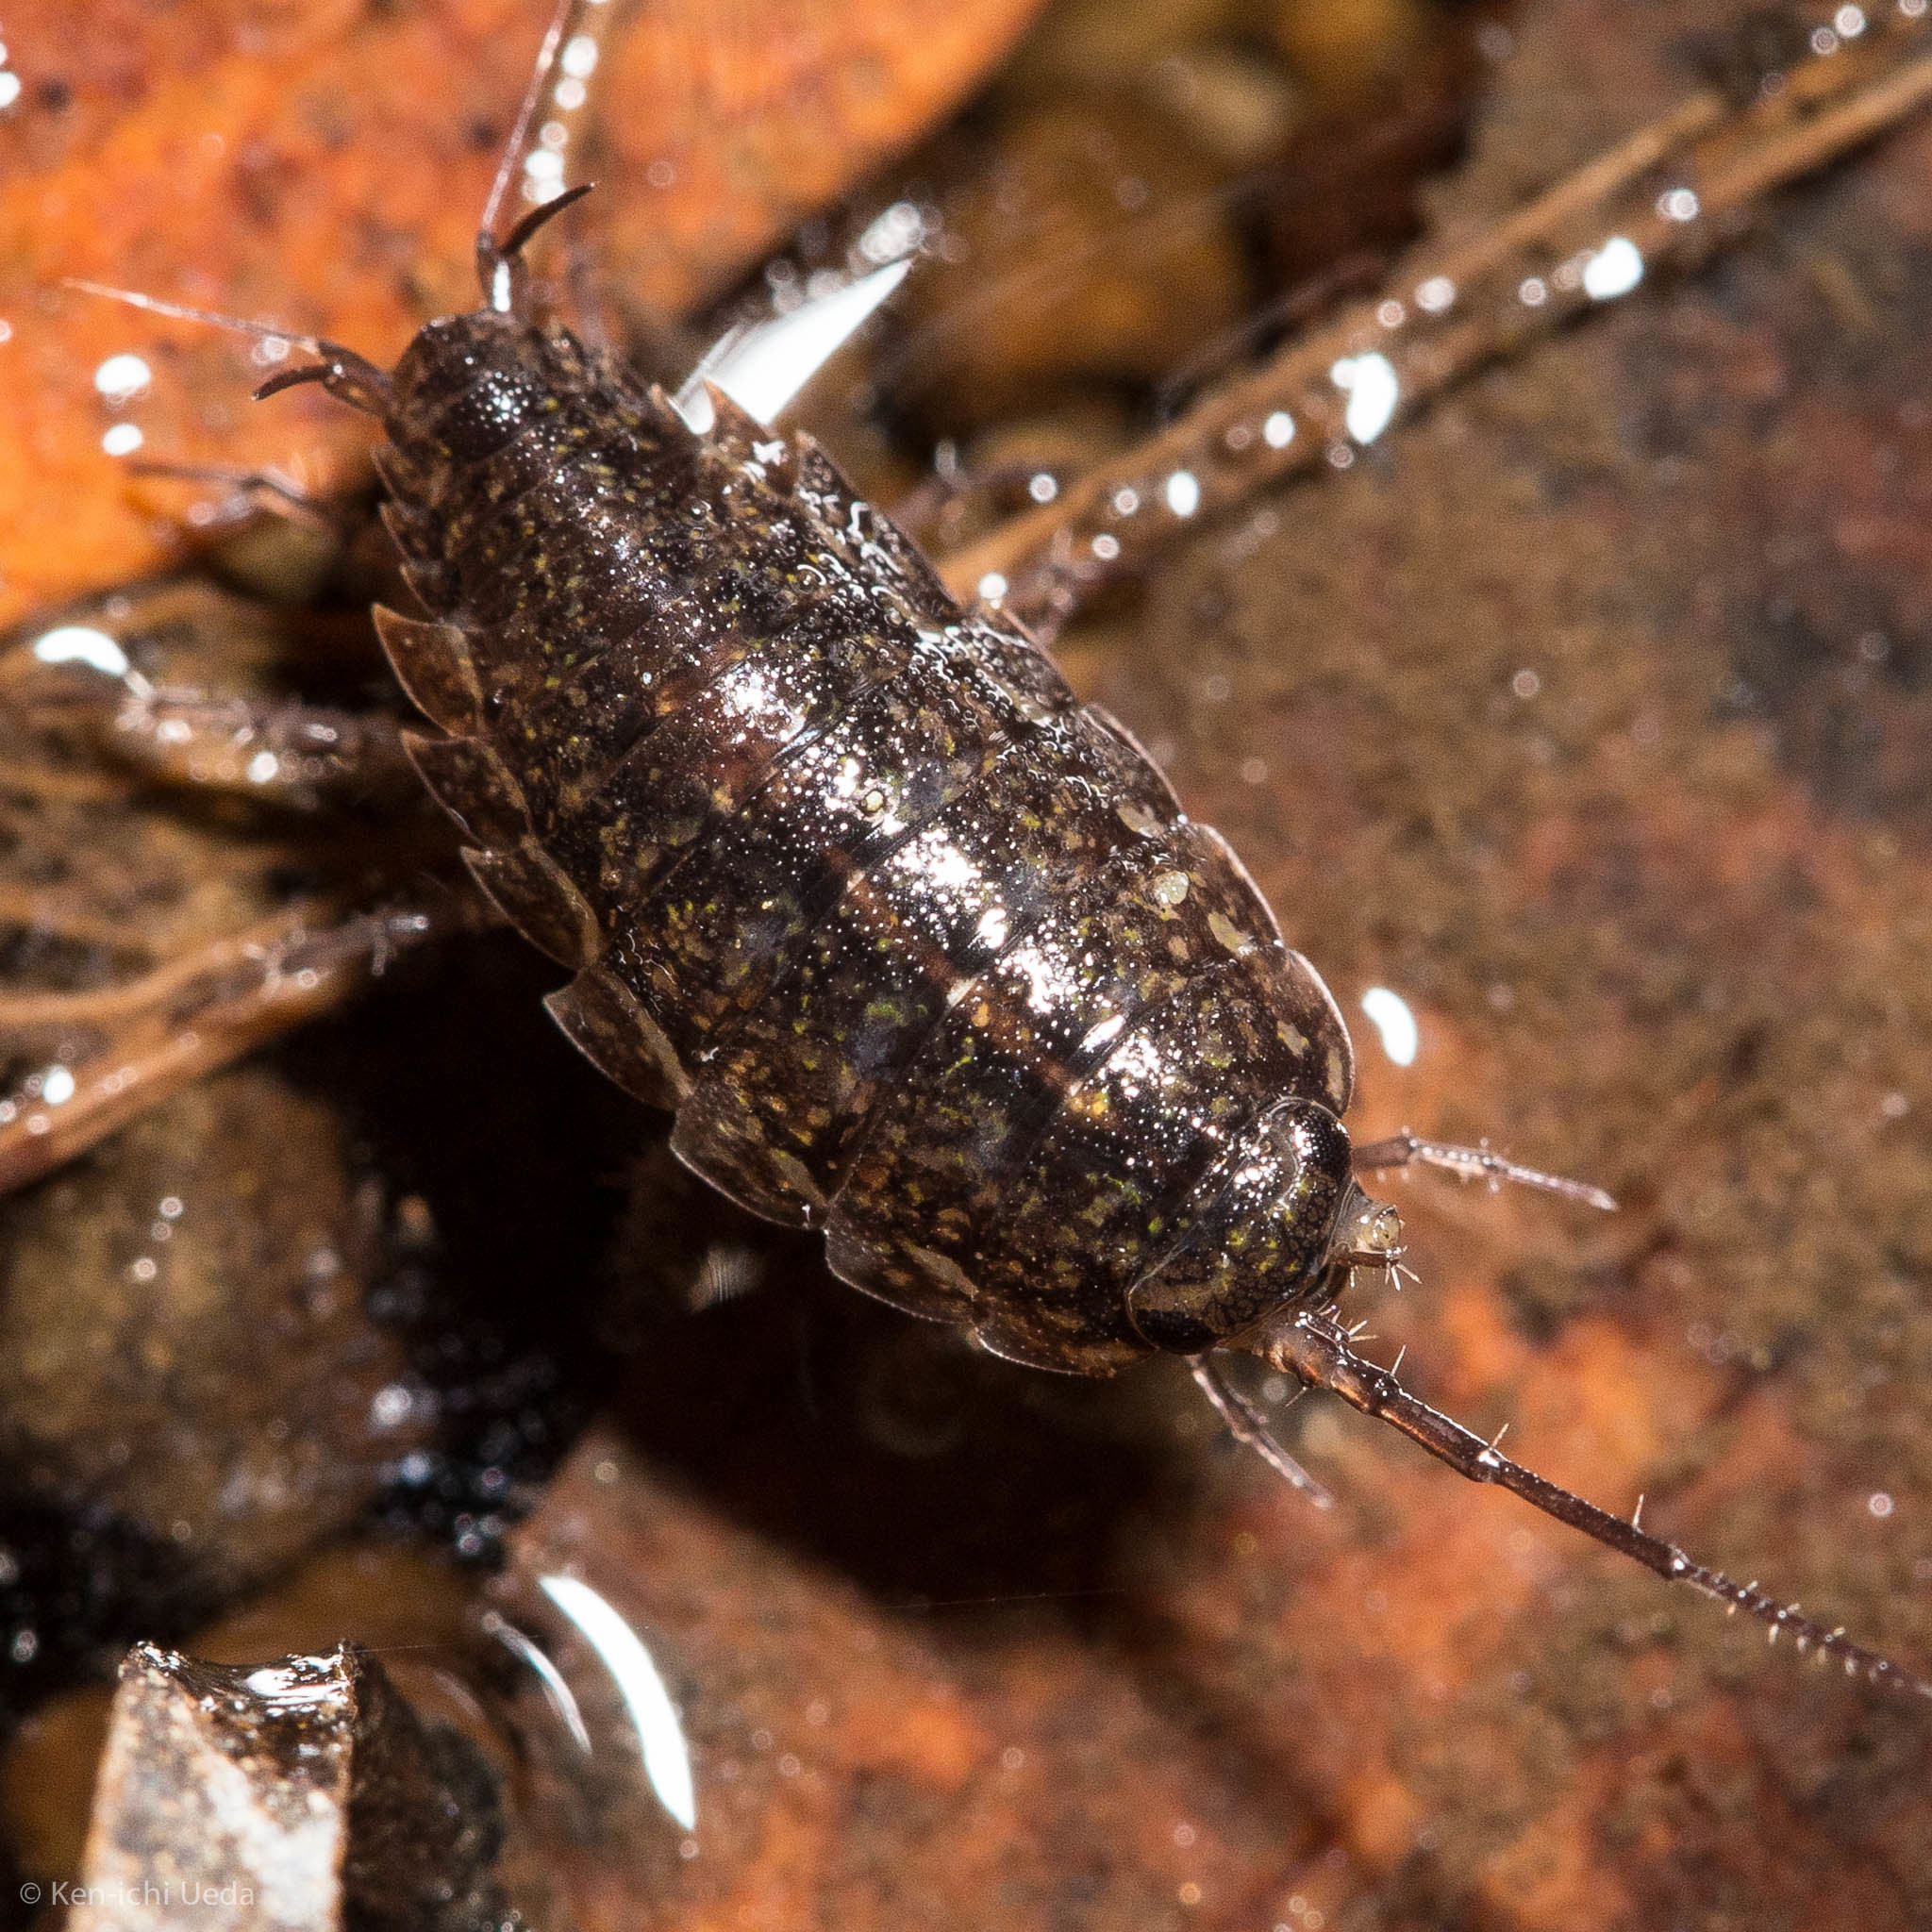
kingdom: Animalia
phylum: Arthropoda
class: Malacostraca
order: Isopoda
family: Ligiidae
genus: Ligidium
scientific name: Ligidium latum
